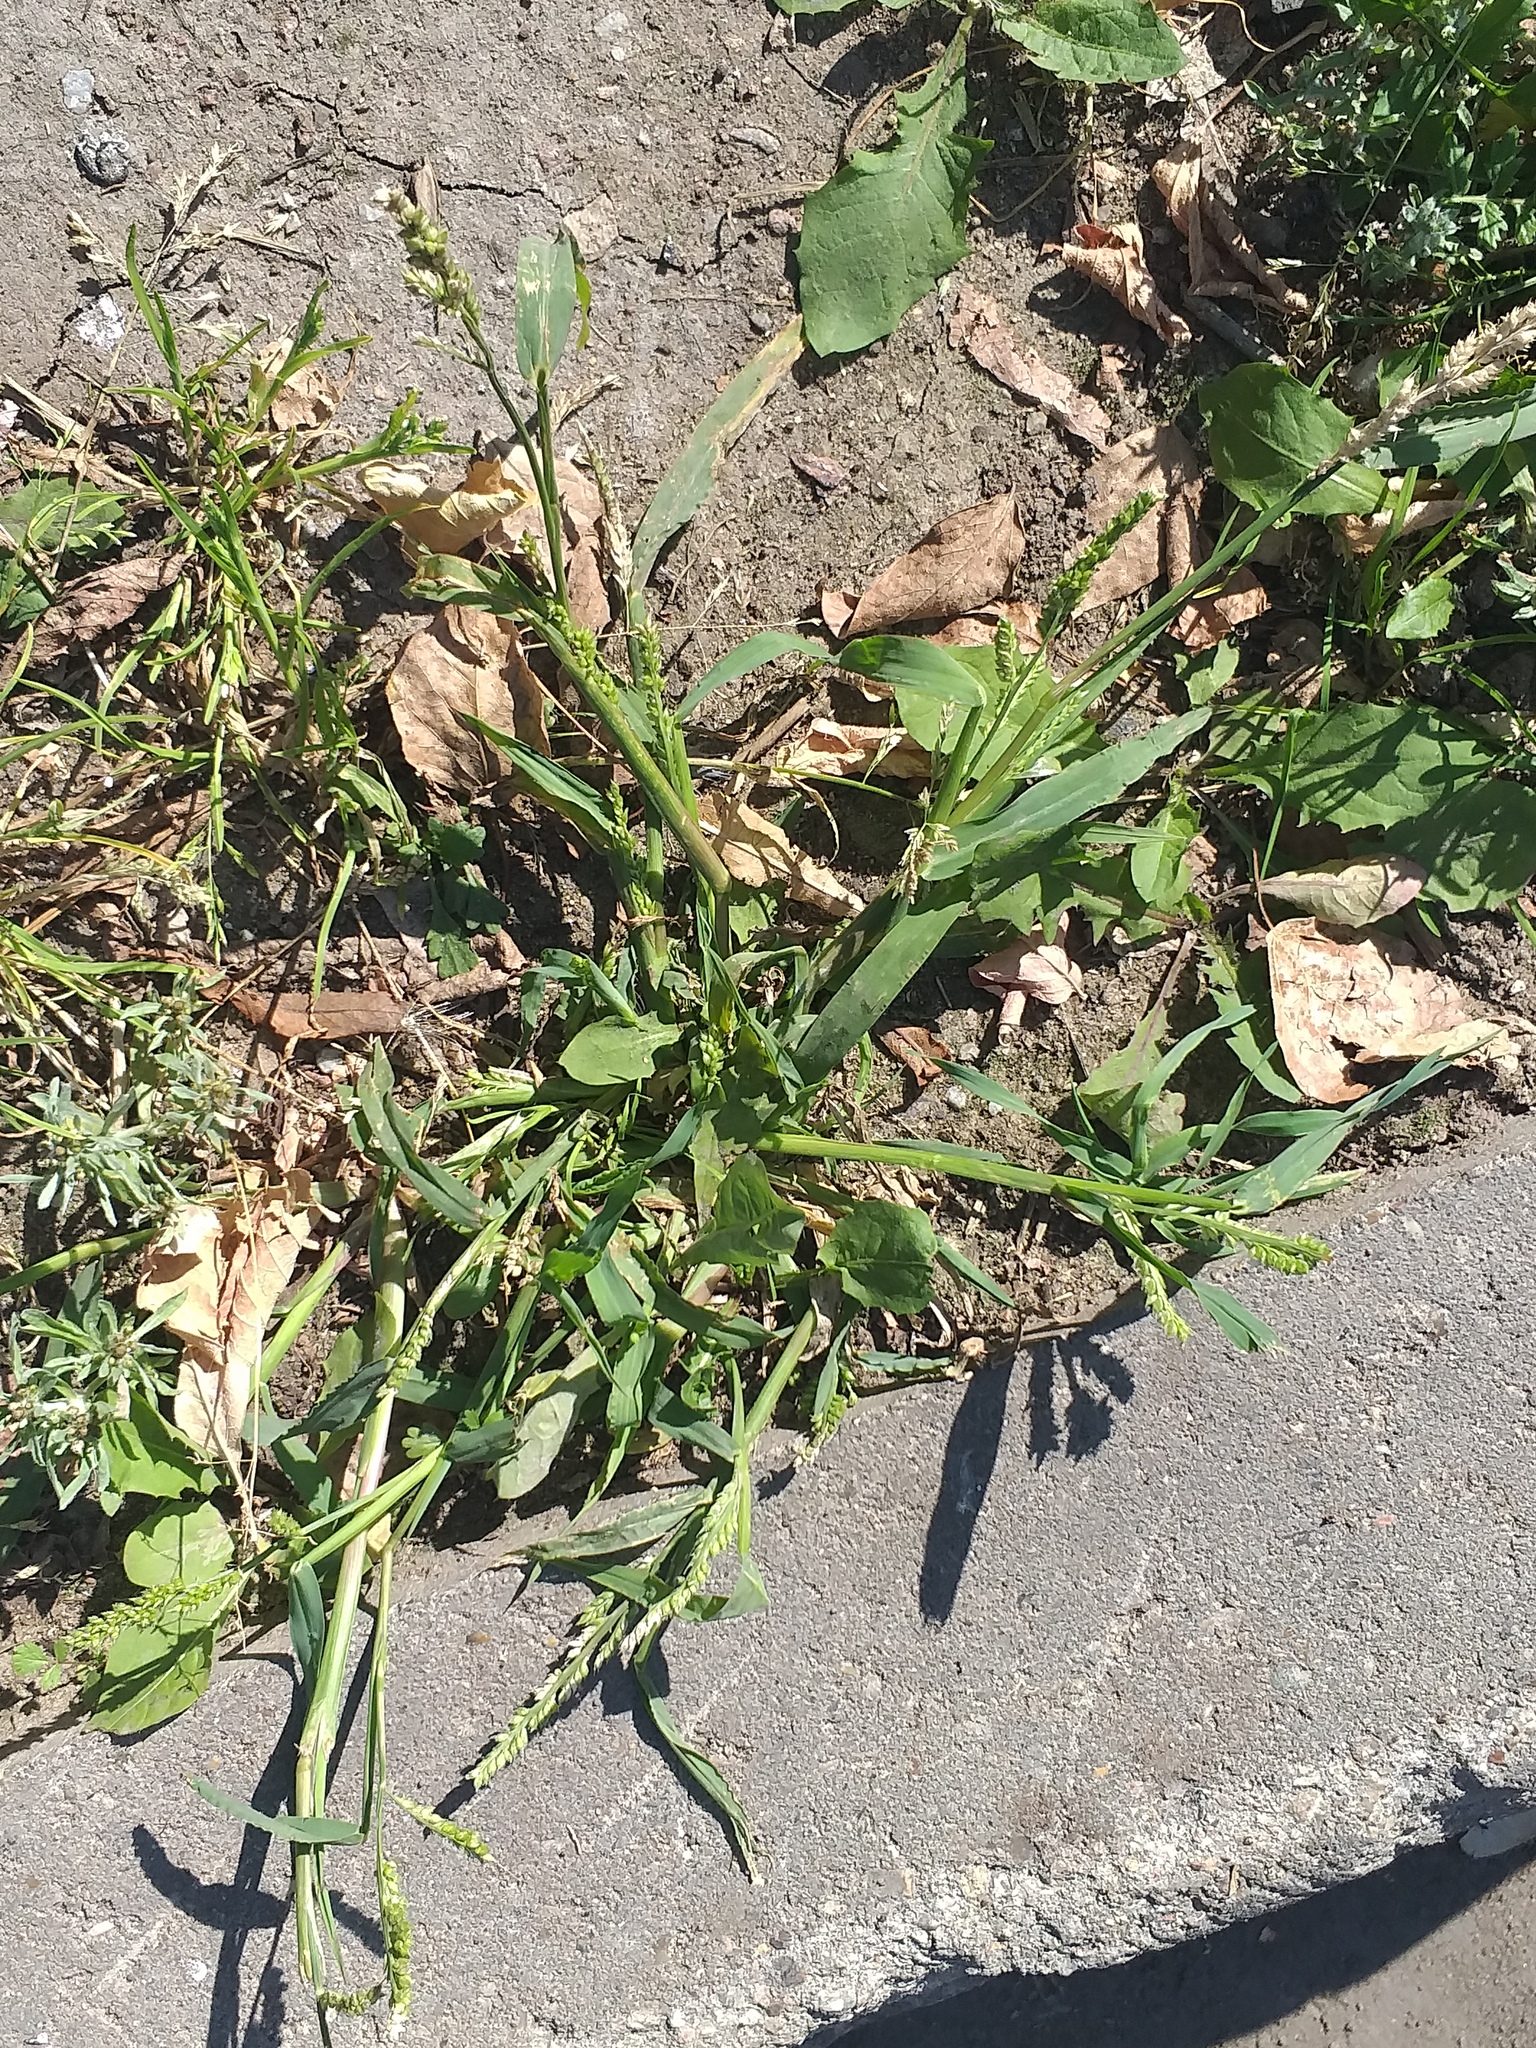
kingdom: Plantae
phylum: Tracheophyta
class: Liliopsida
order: Poales
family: Poaceae
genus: Echinochloa
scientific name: Echinochloa crus-galli
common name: Cockspur
